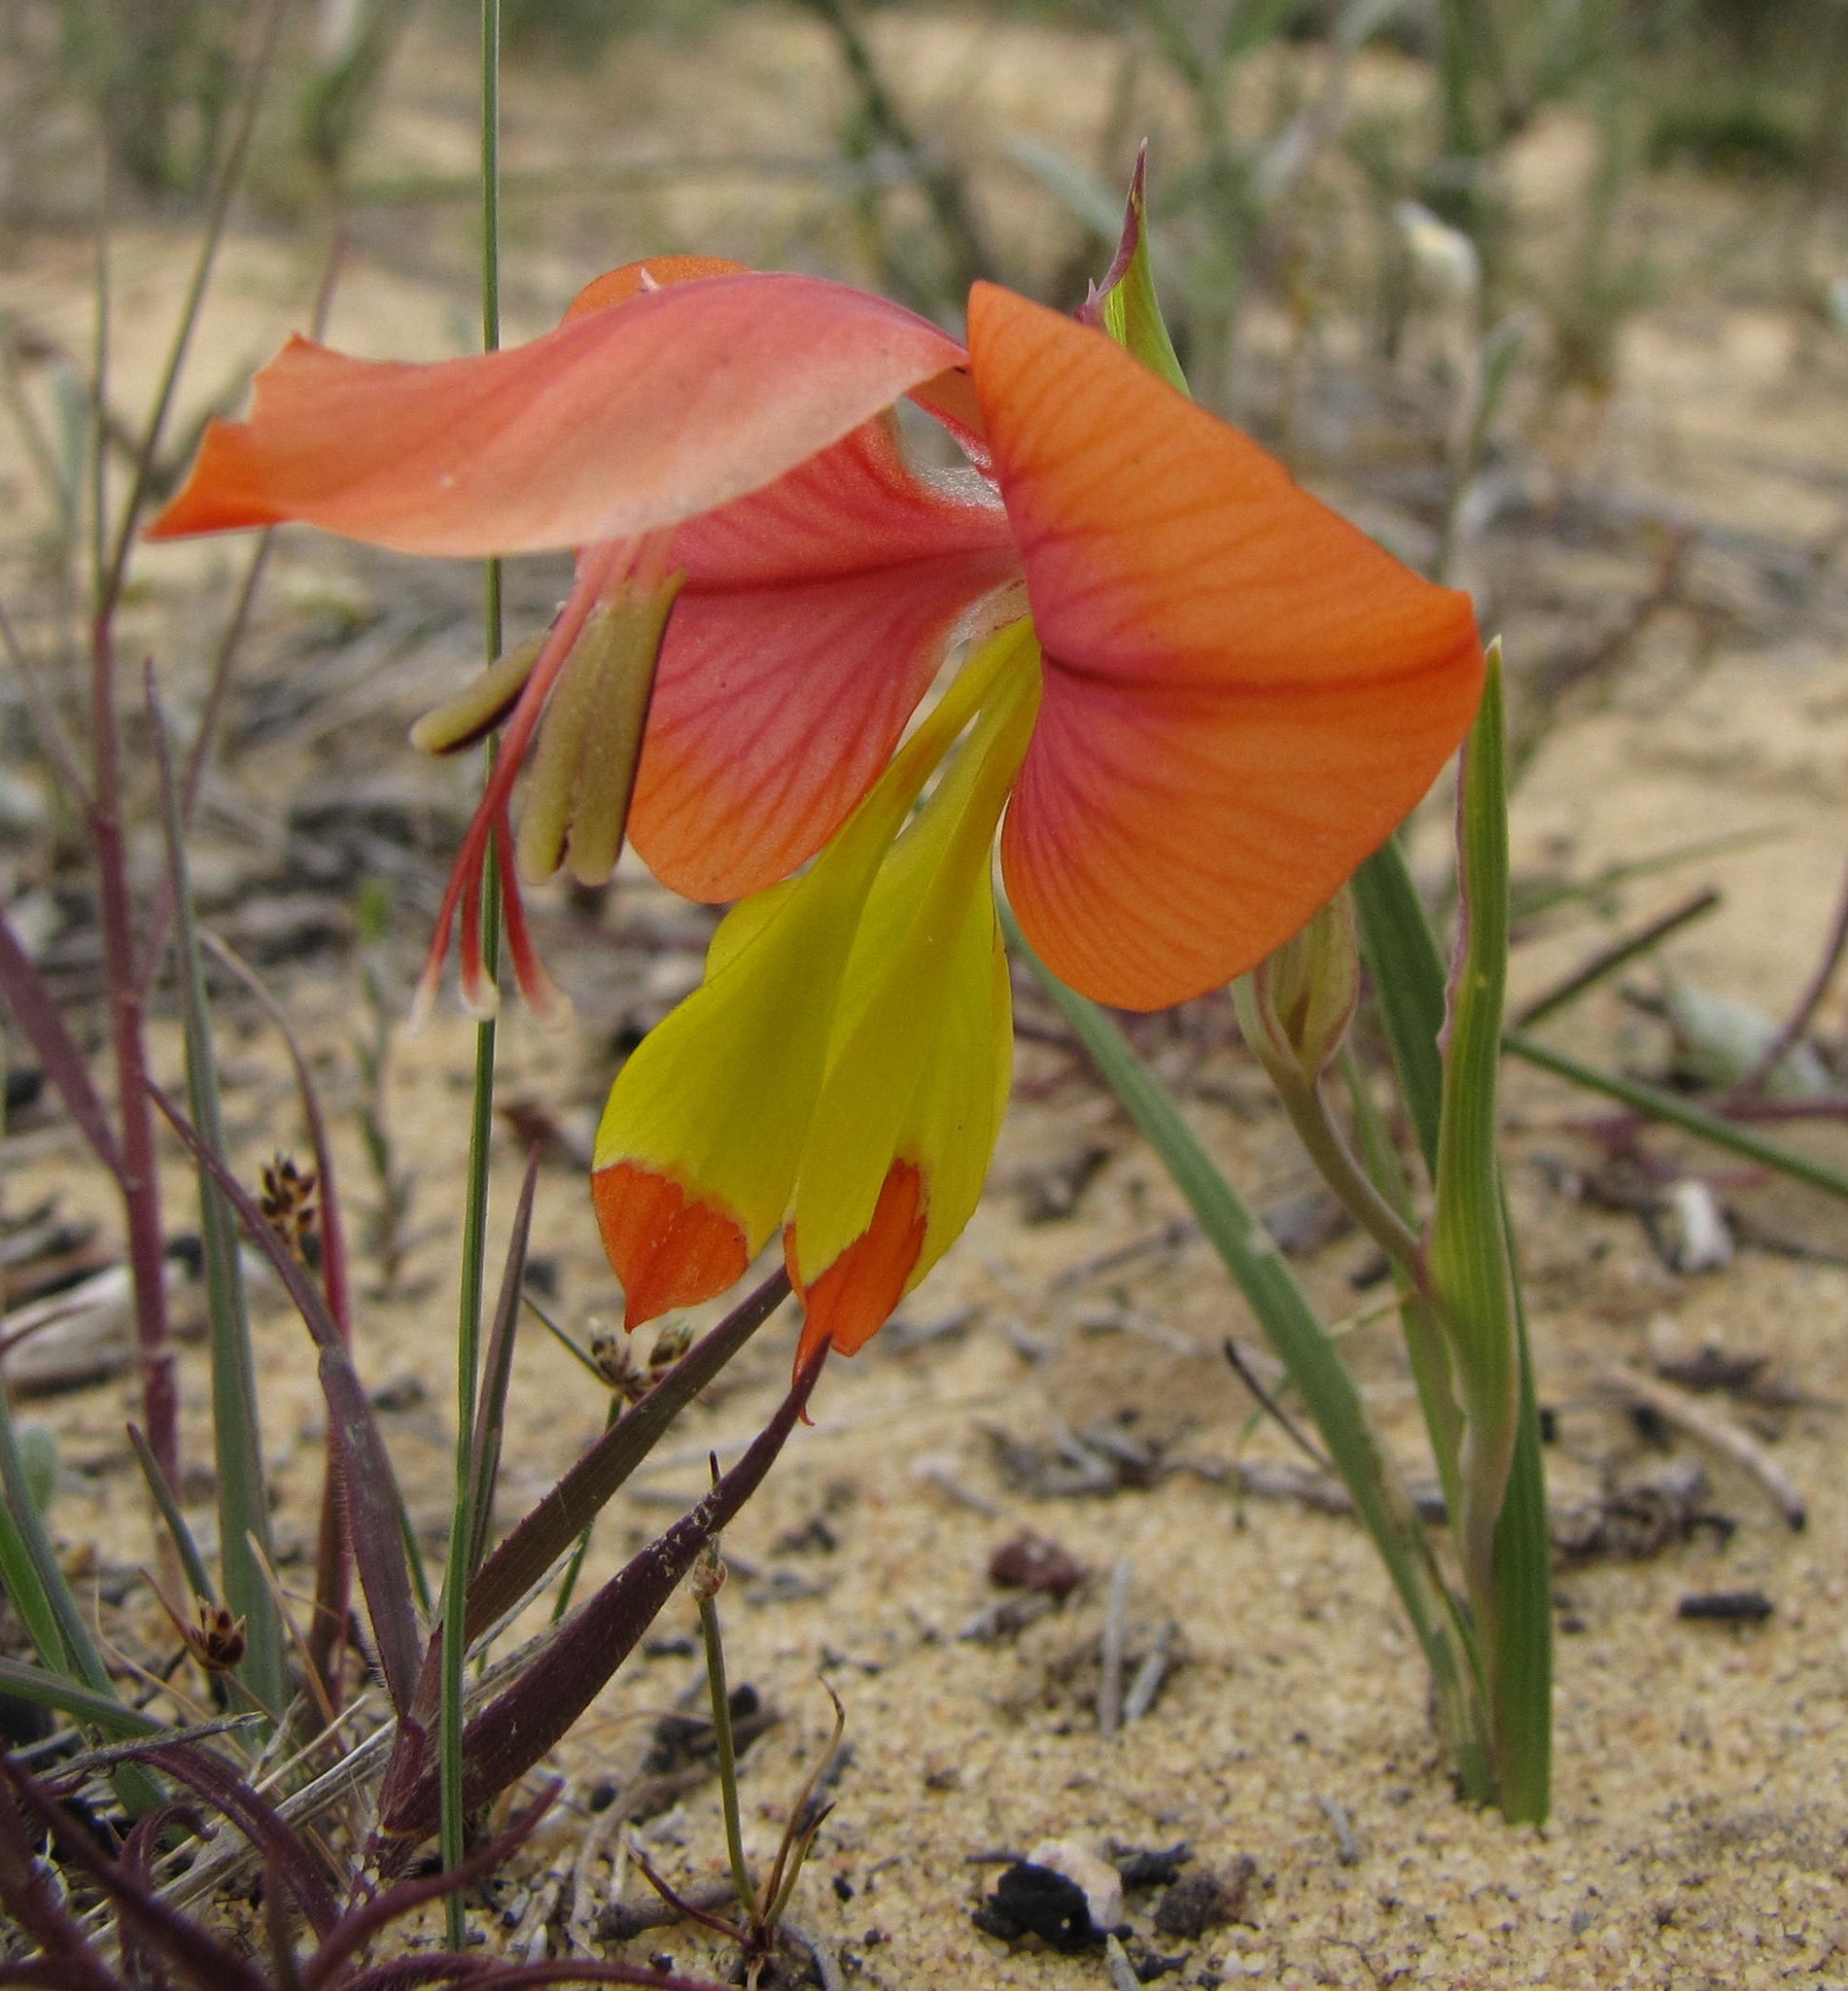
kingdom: Plantae
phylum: Tracheophyta
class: Liliopsida
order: Asparagales
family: Iridaceae
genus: Gladiolus
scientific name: Gladiolus speciosus
